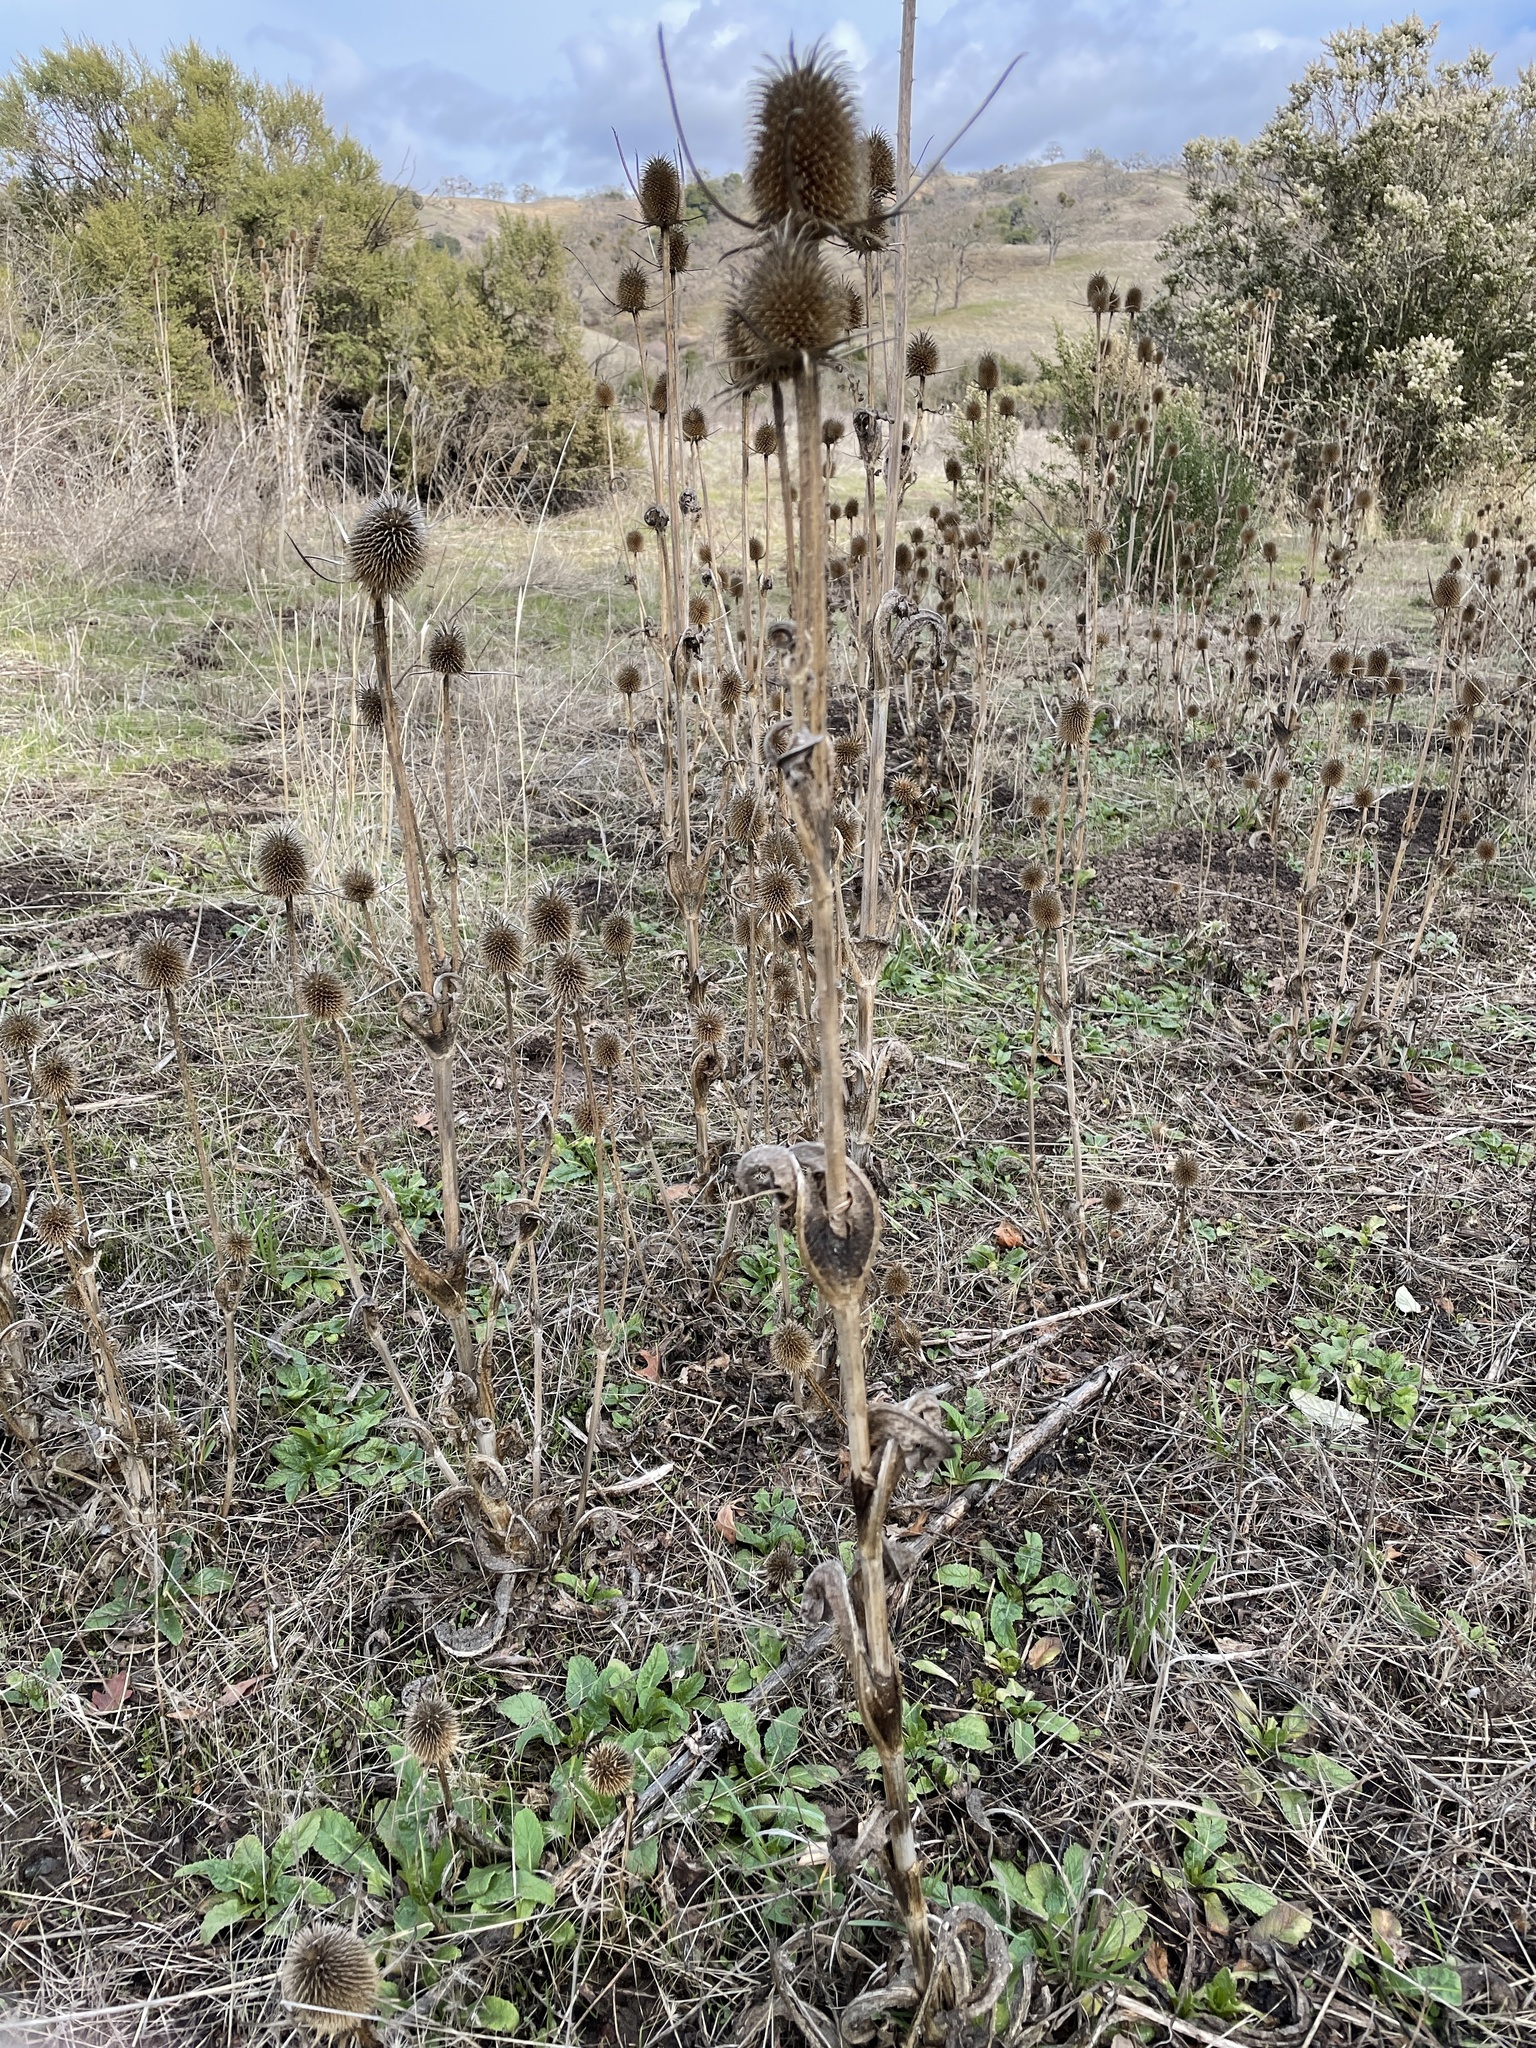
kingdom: Plantae
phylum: Tracheophyta
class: Magnoliopsida
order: Dipsacales
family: Caprifoliaceae
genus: Dipsacus
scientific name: Dipsacus sativus
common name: Fuller's teasel
